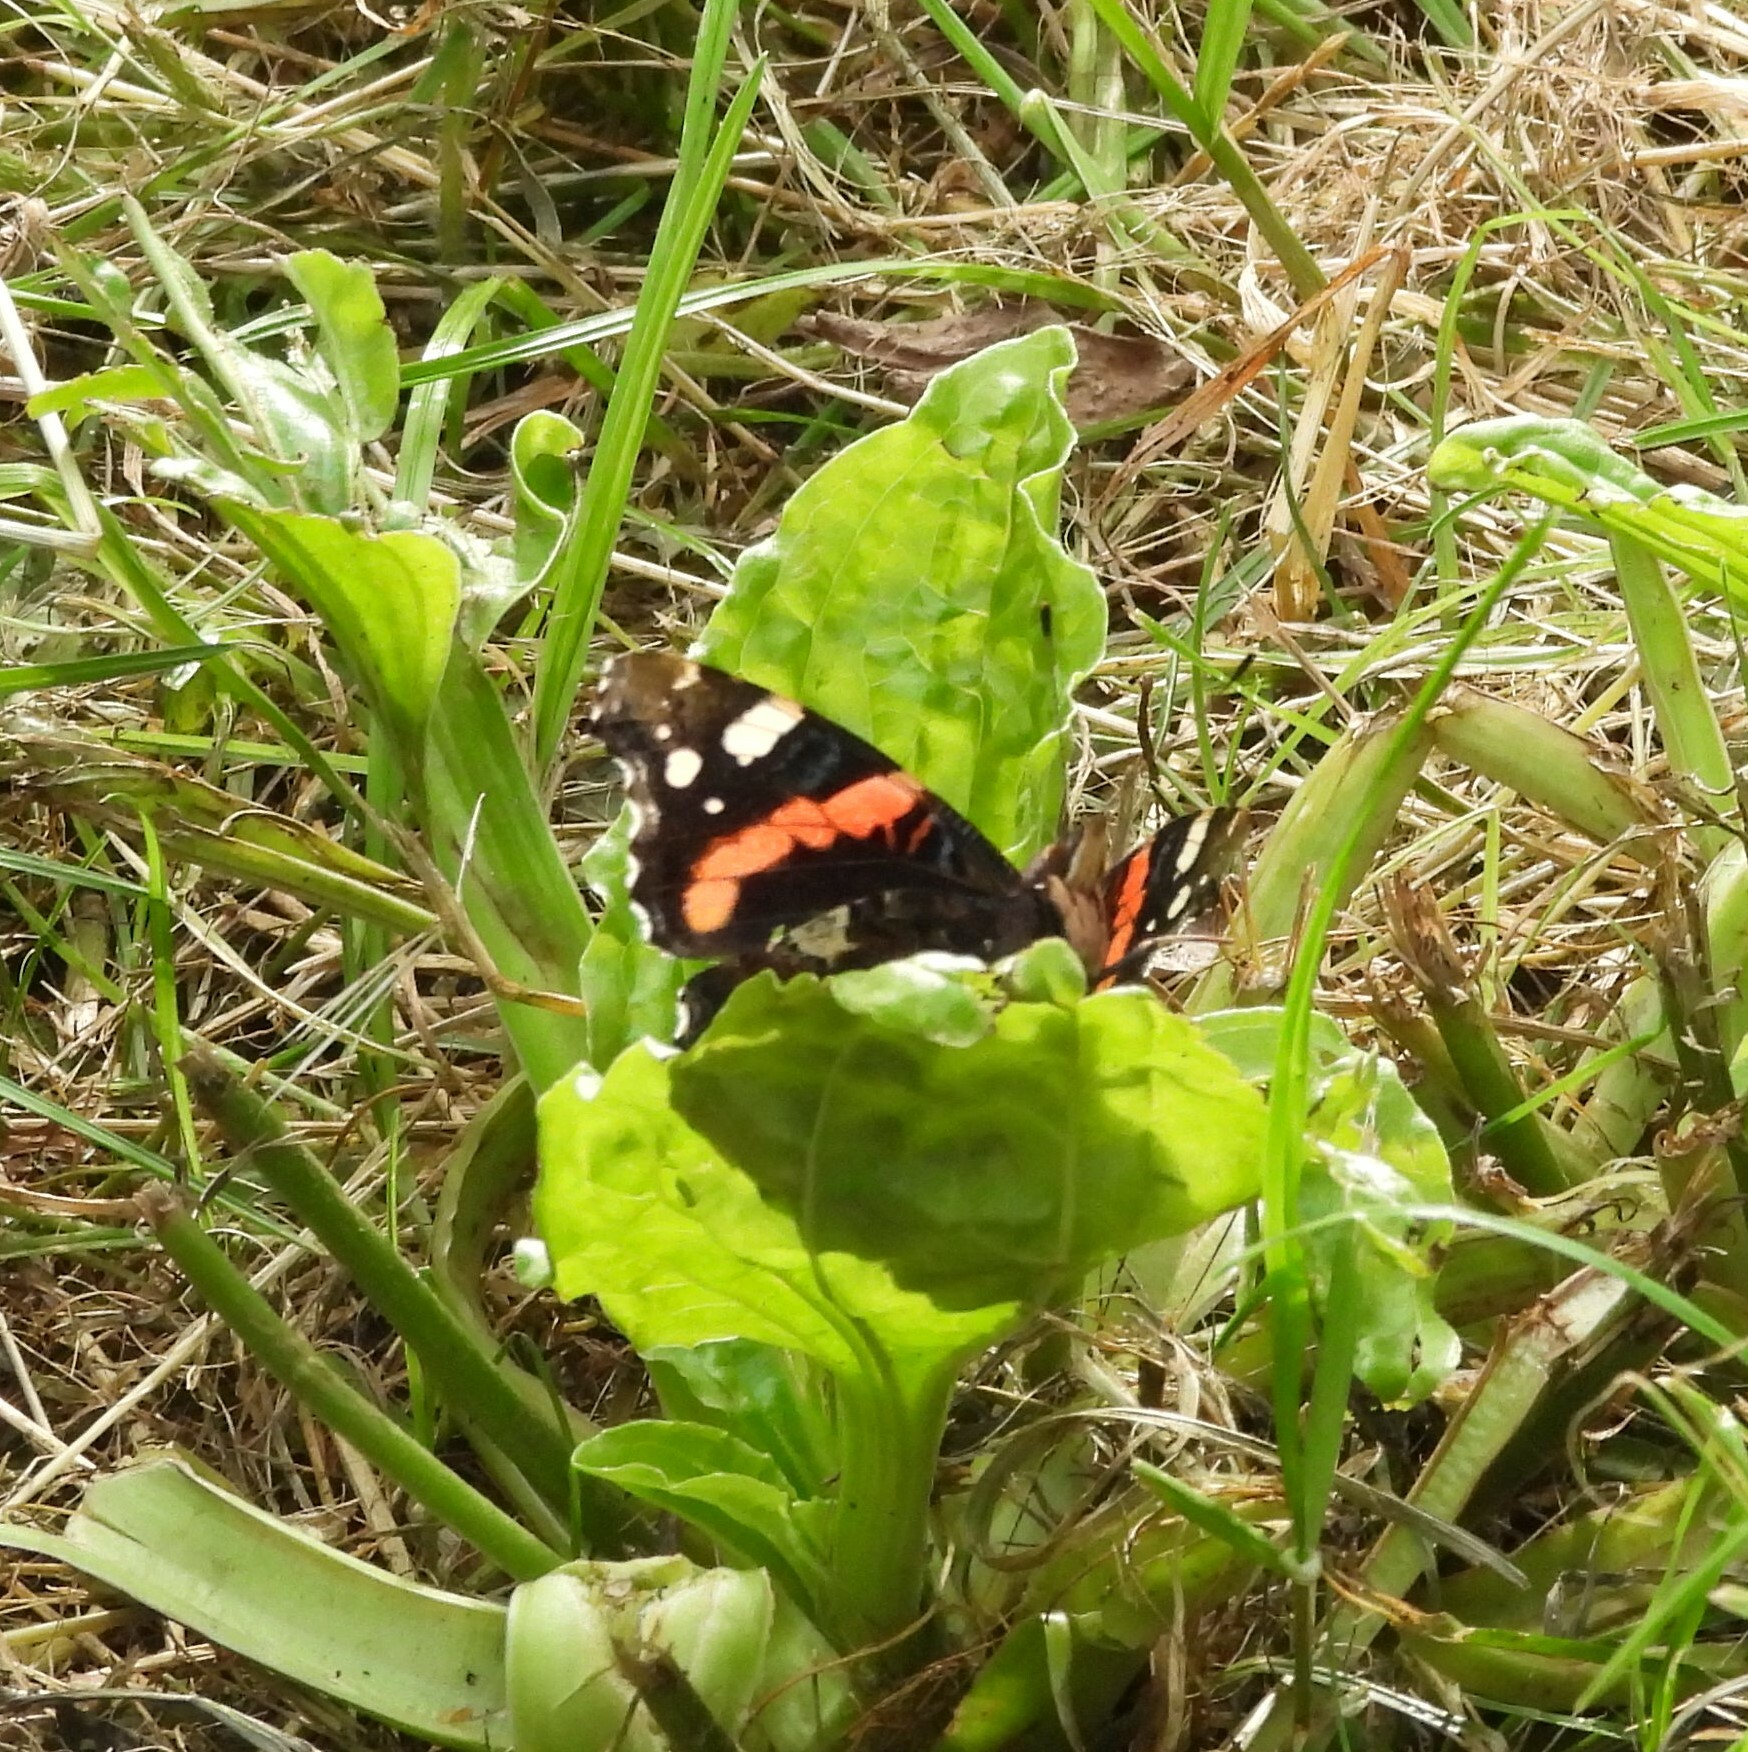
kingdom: Animalia
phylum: Arthropoda
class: Insecta
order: Lepidoptera
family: Nymphalidae
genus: Vanessa
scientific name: Vanessa atalanta
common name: Red admiral
